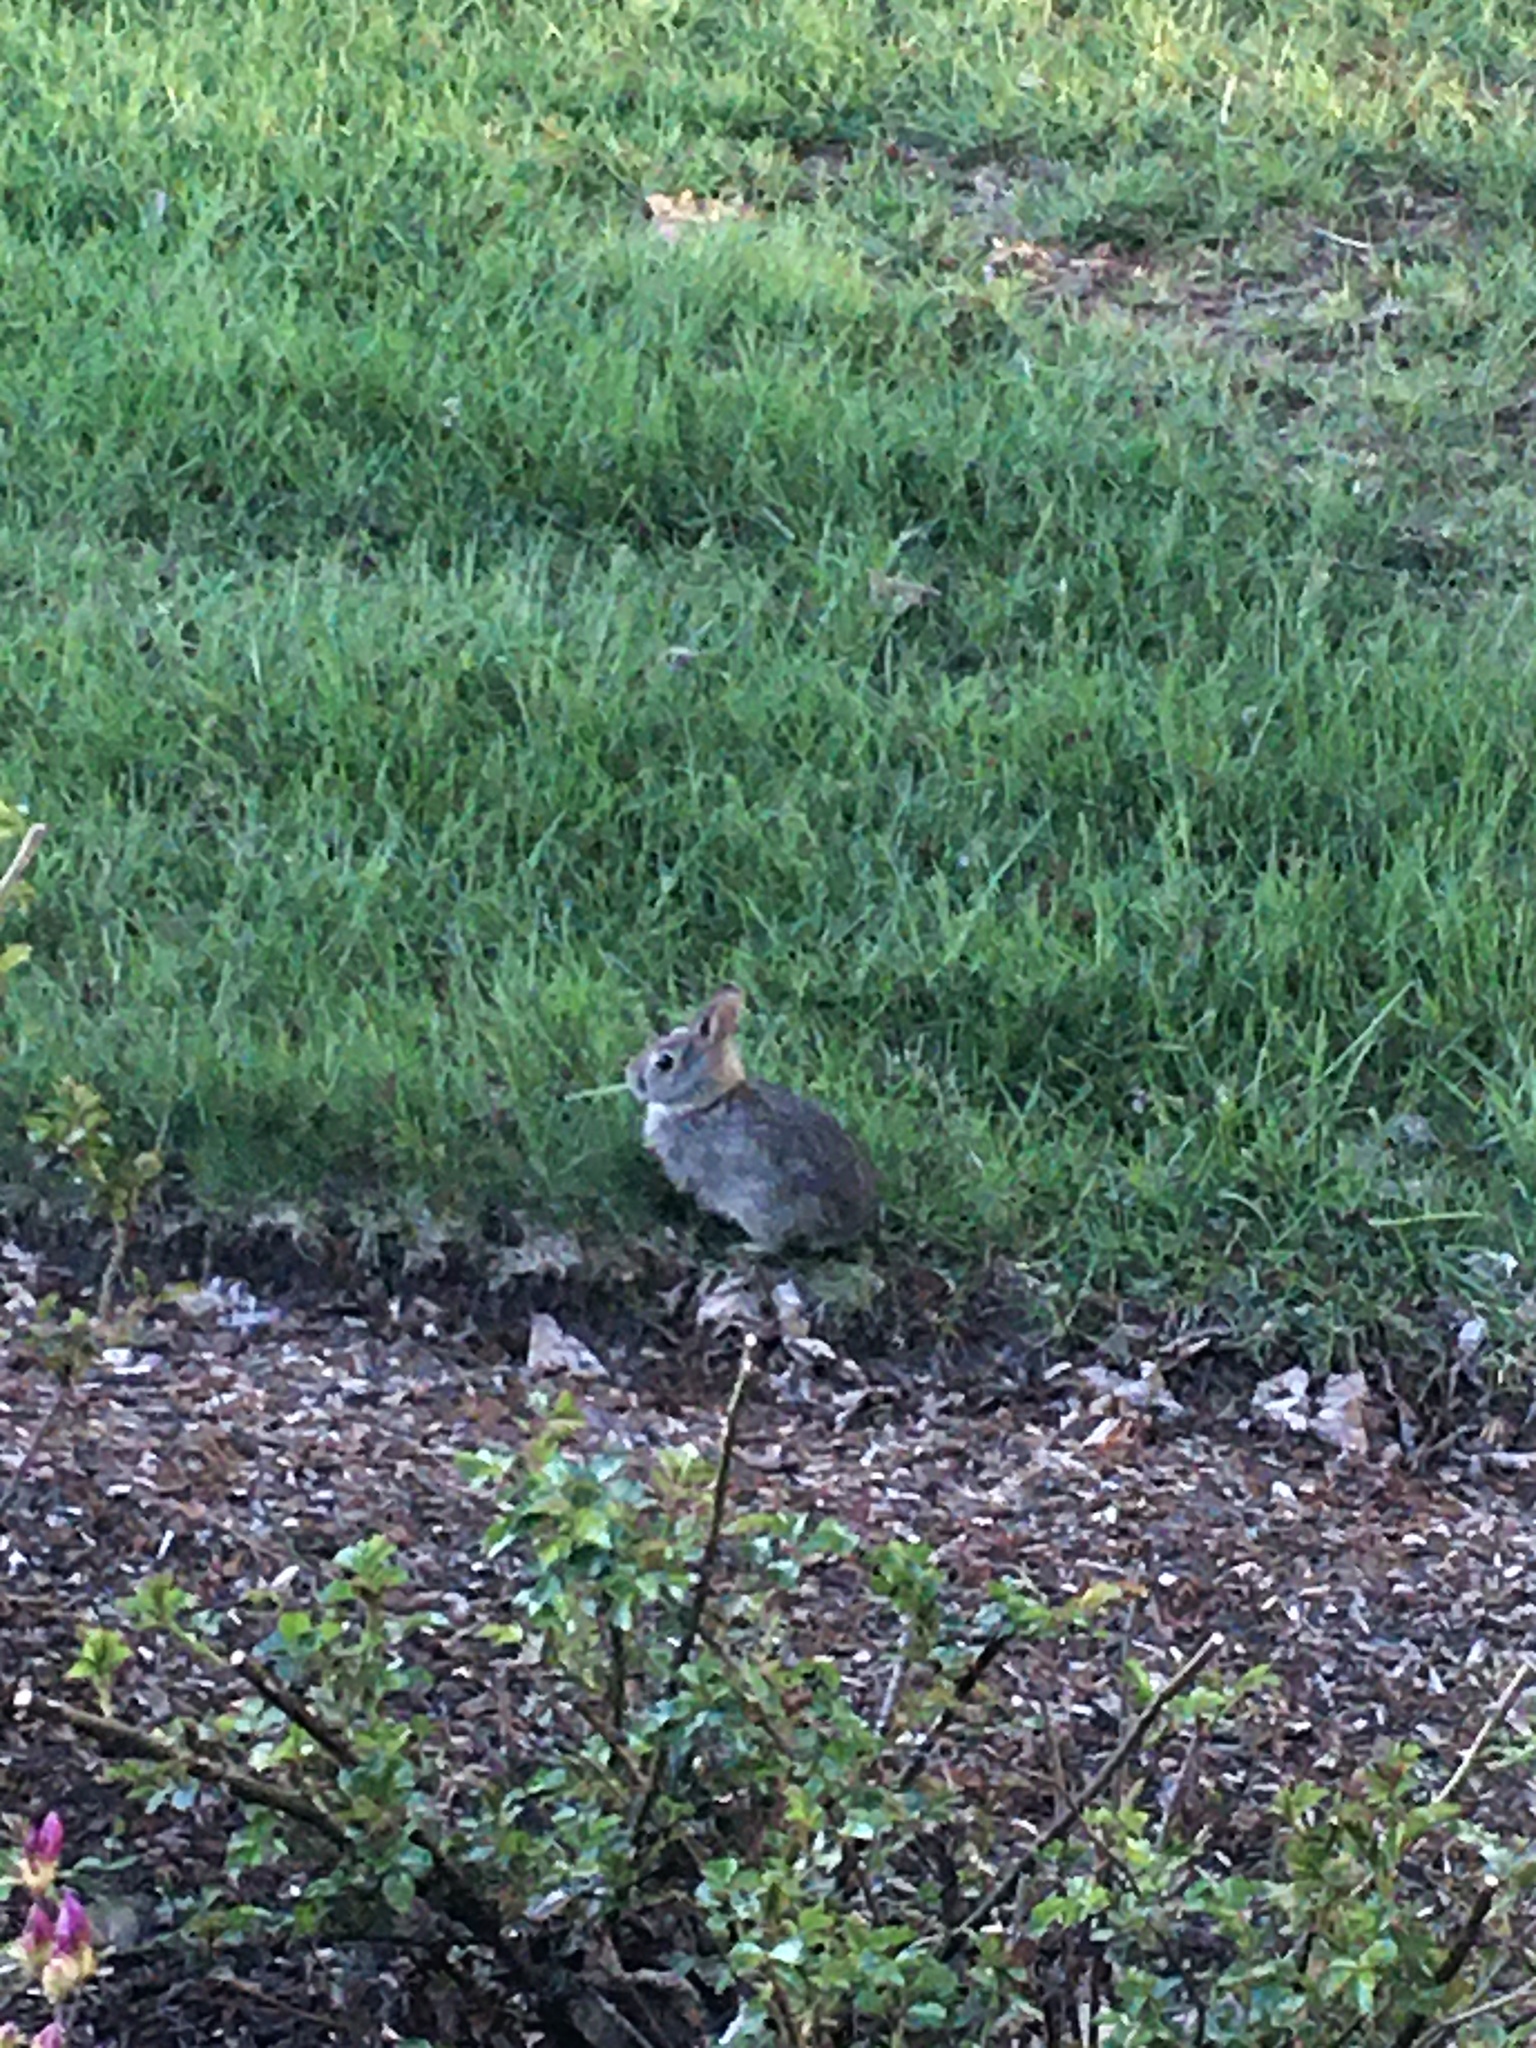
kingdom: Animalia
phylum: Chordata
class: Mammalia
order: Lagomorpha
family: Leporidae
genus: Sylvilagus
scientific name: Sylvilagus floridanus
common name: Eastern cottontail
